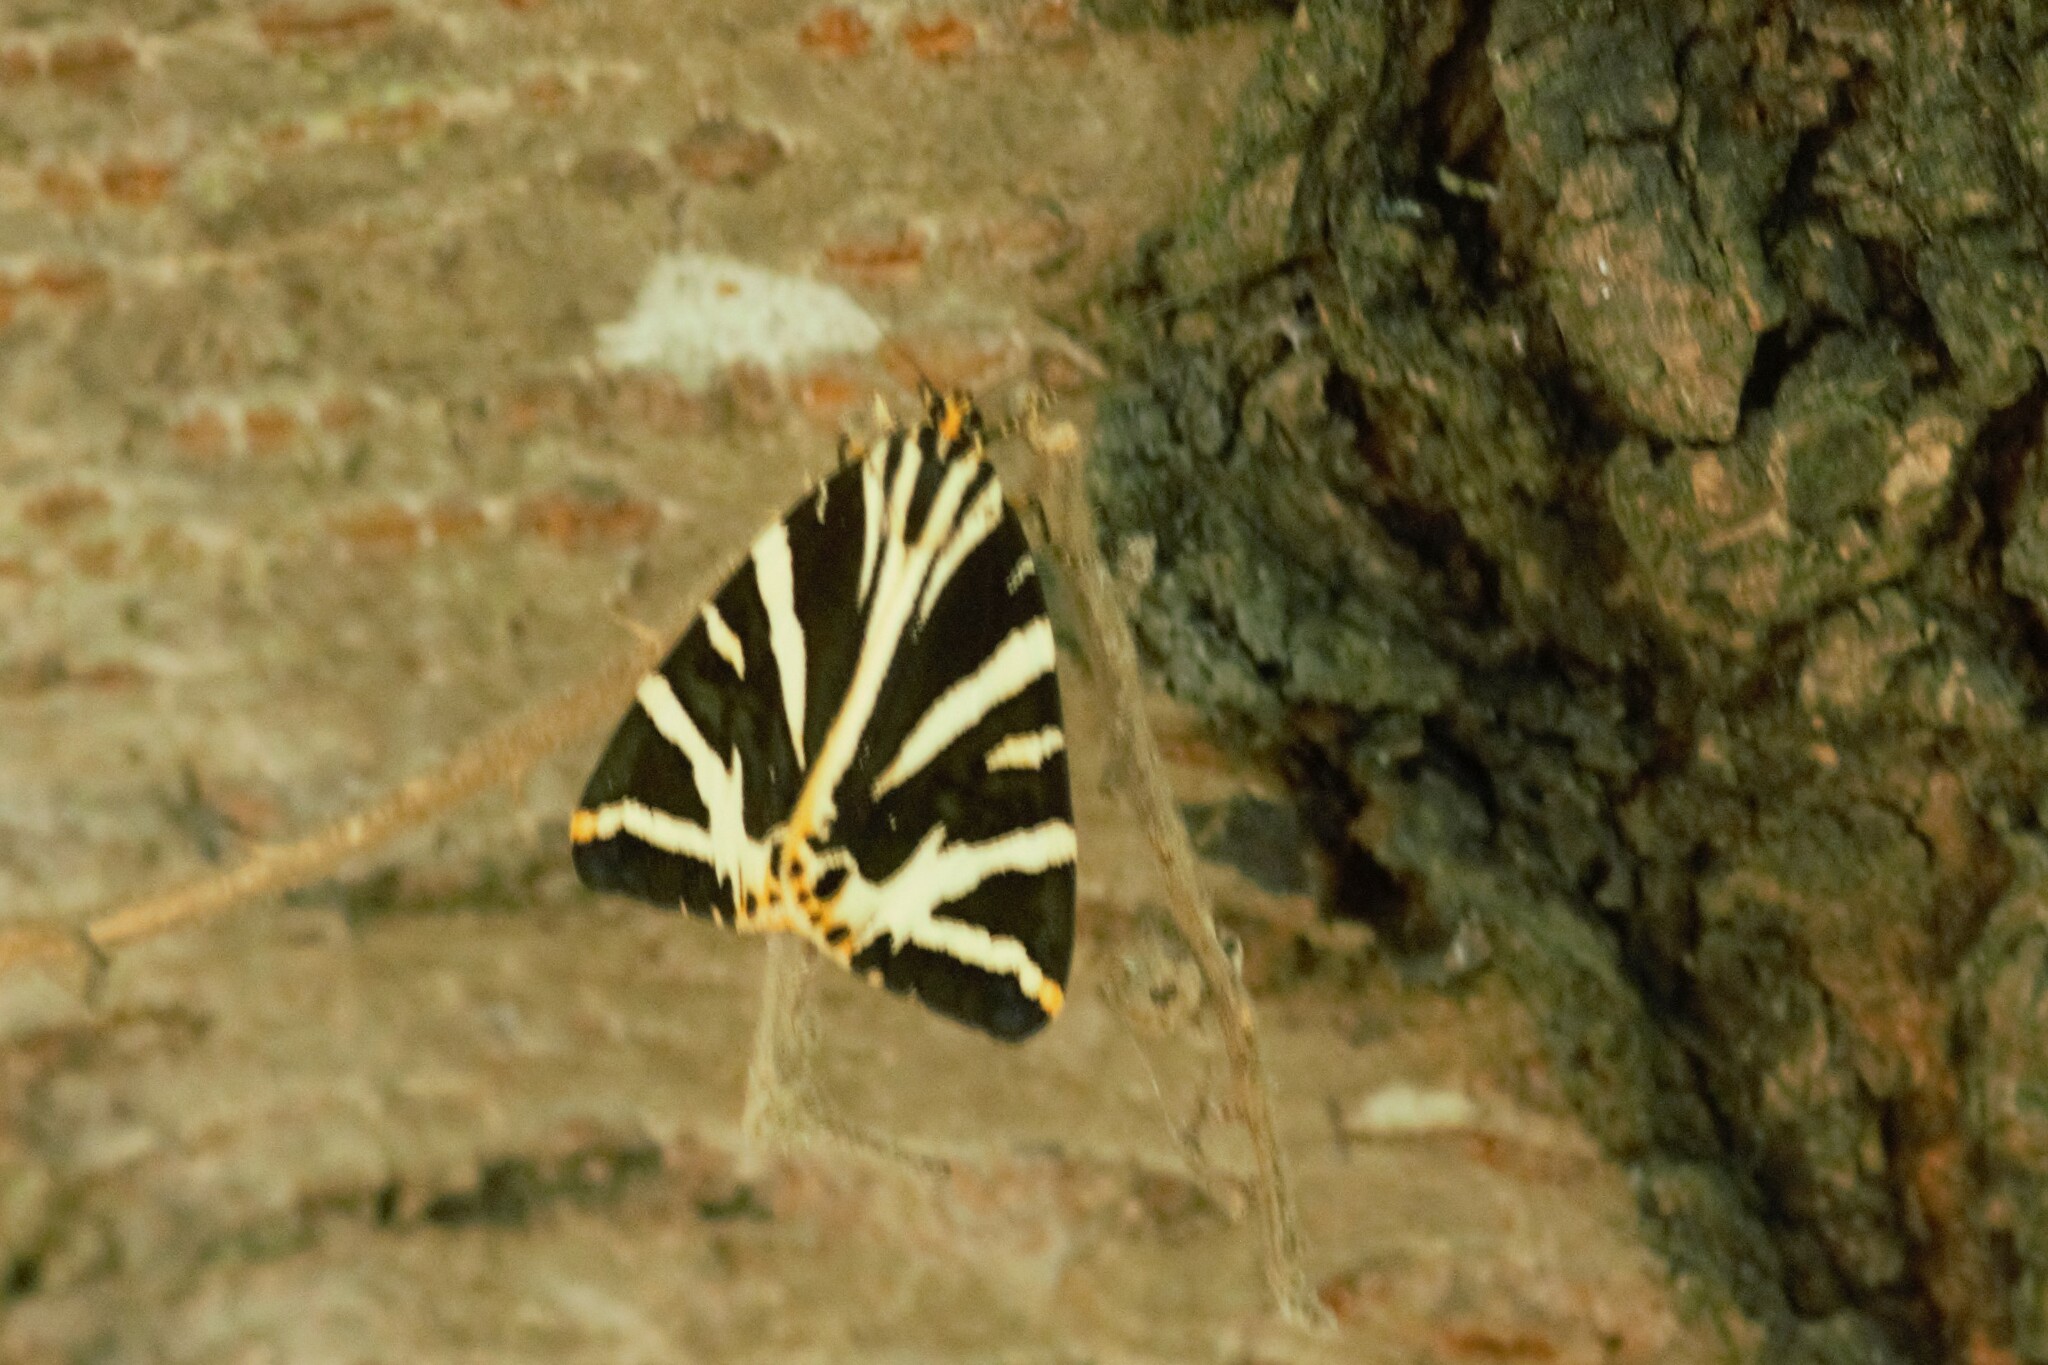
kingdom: Animalia
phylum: Arthropoda
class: Insecta
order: Lepidoptera
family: Erebidae
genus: Euplagia
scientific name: Euplagia quadripunctaria
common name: Jersey tiger
